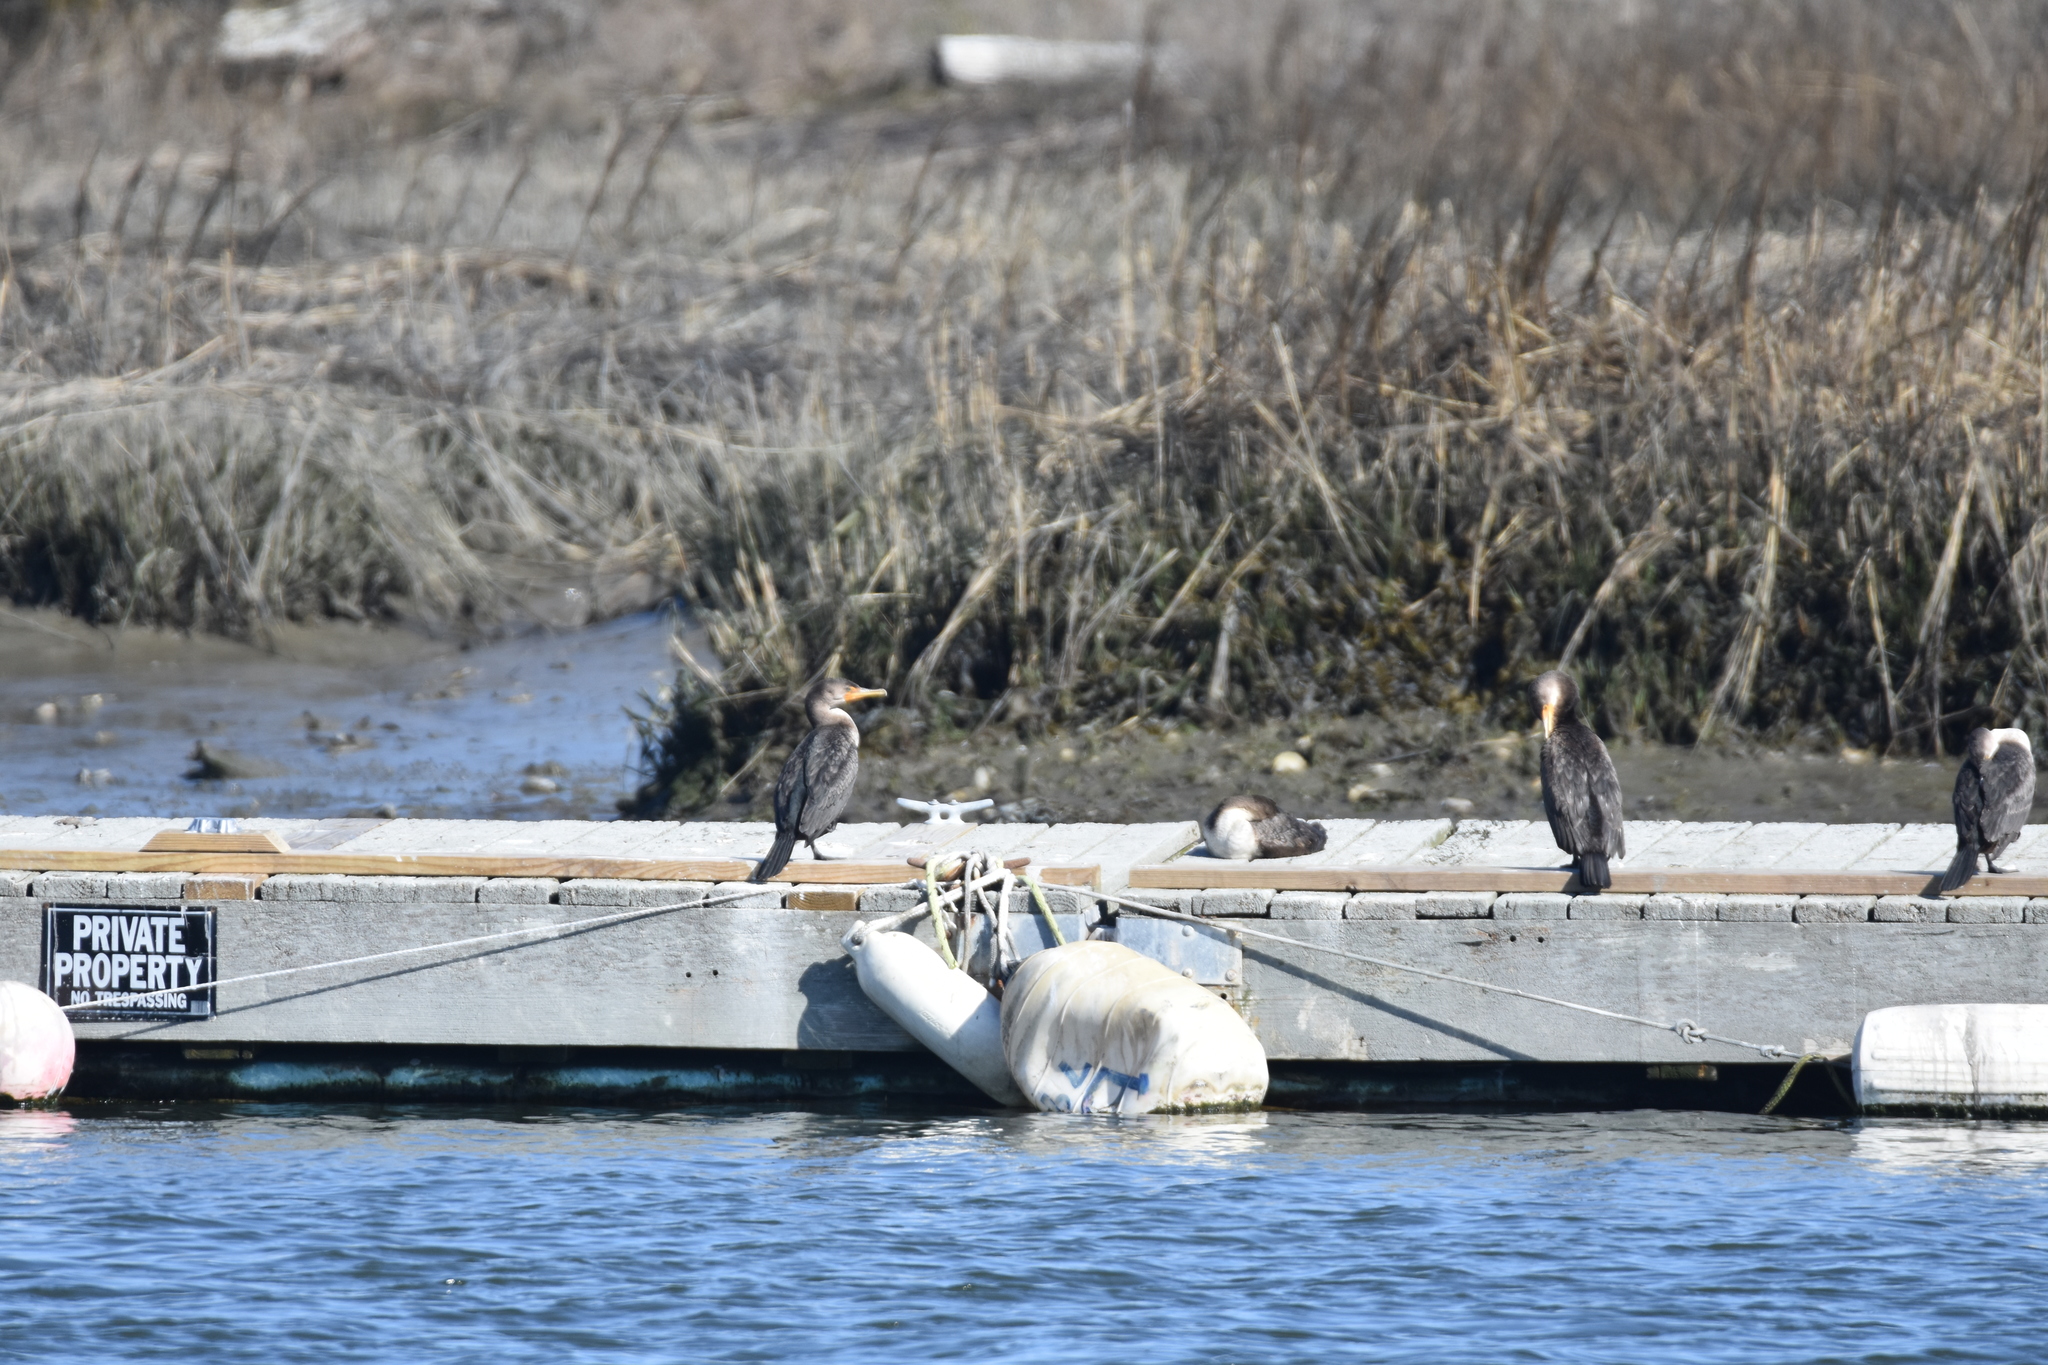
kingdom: Animalia
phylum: Chordata
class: Aves
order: Suliformes
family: Phalacrocoracidae
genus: Phalacrocorax
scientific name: Phalacrocorax auritus
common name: Double-crested cormorant
